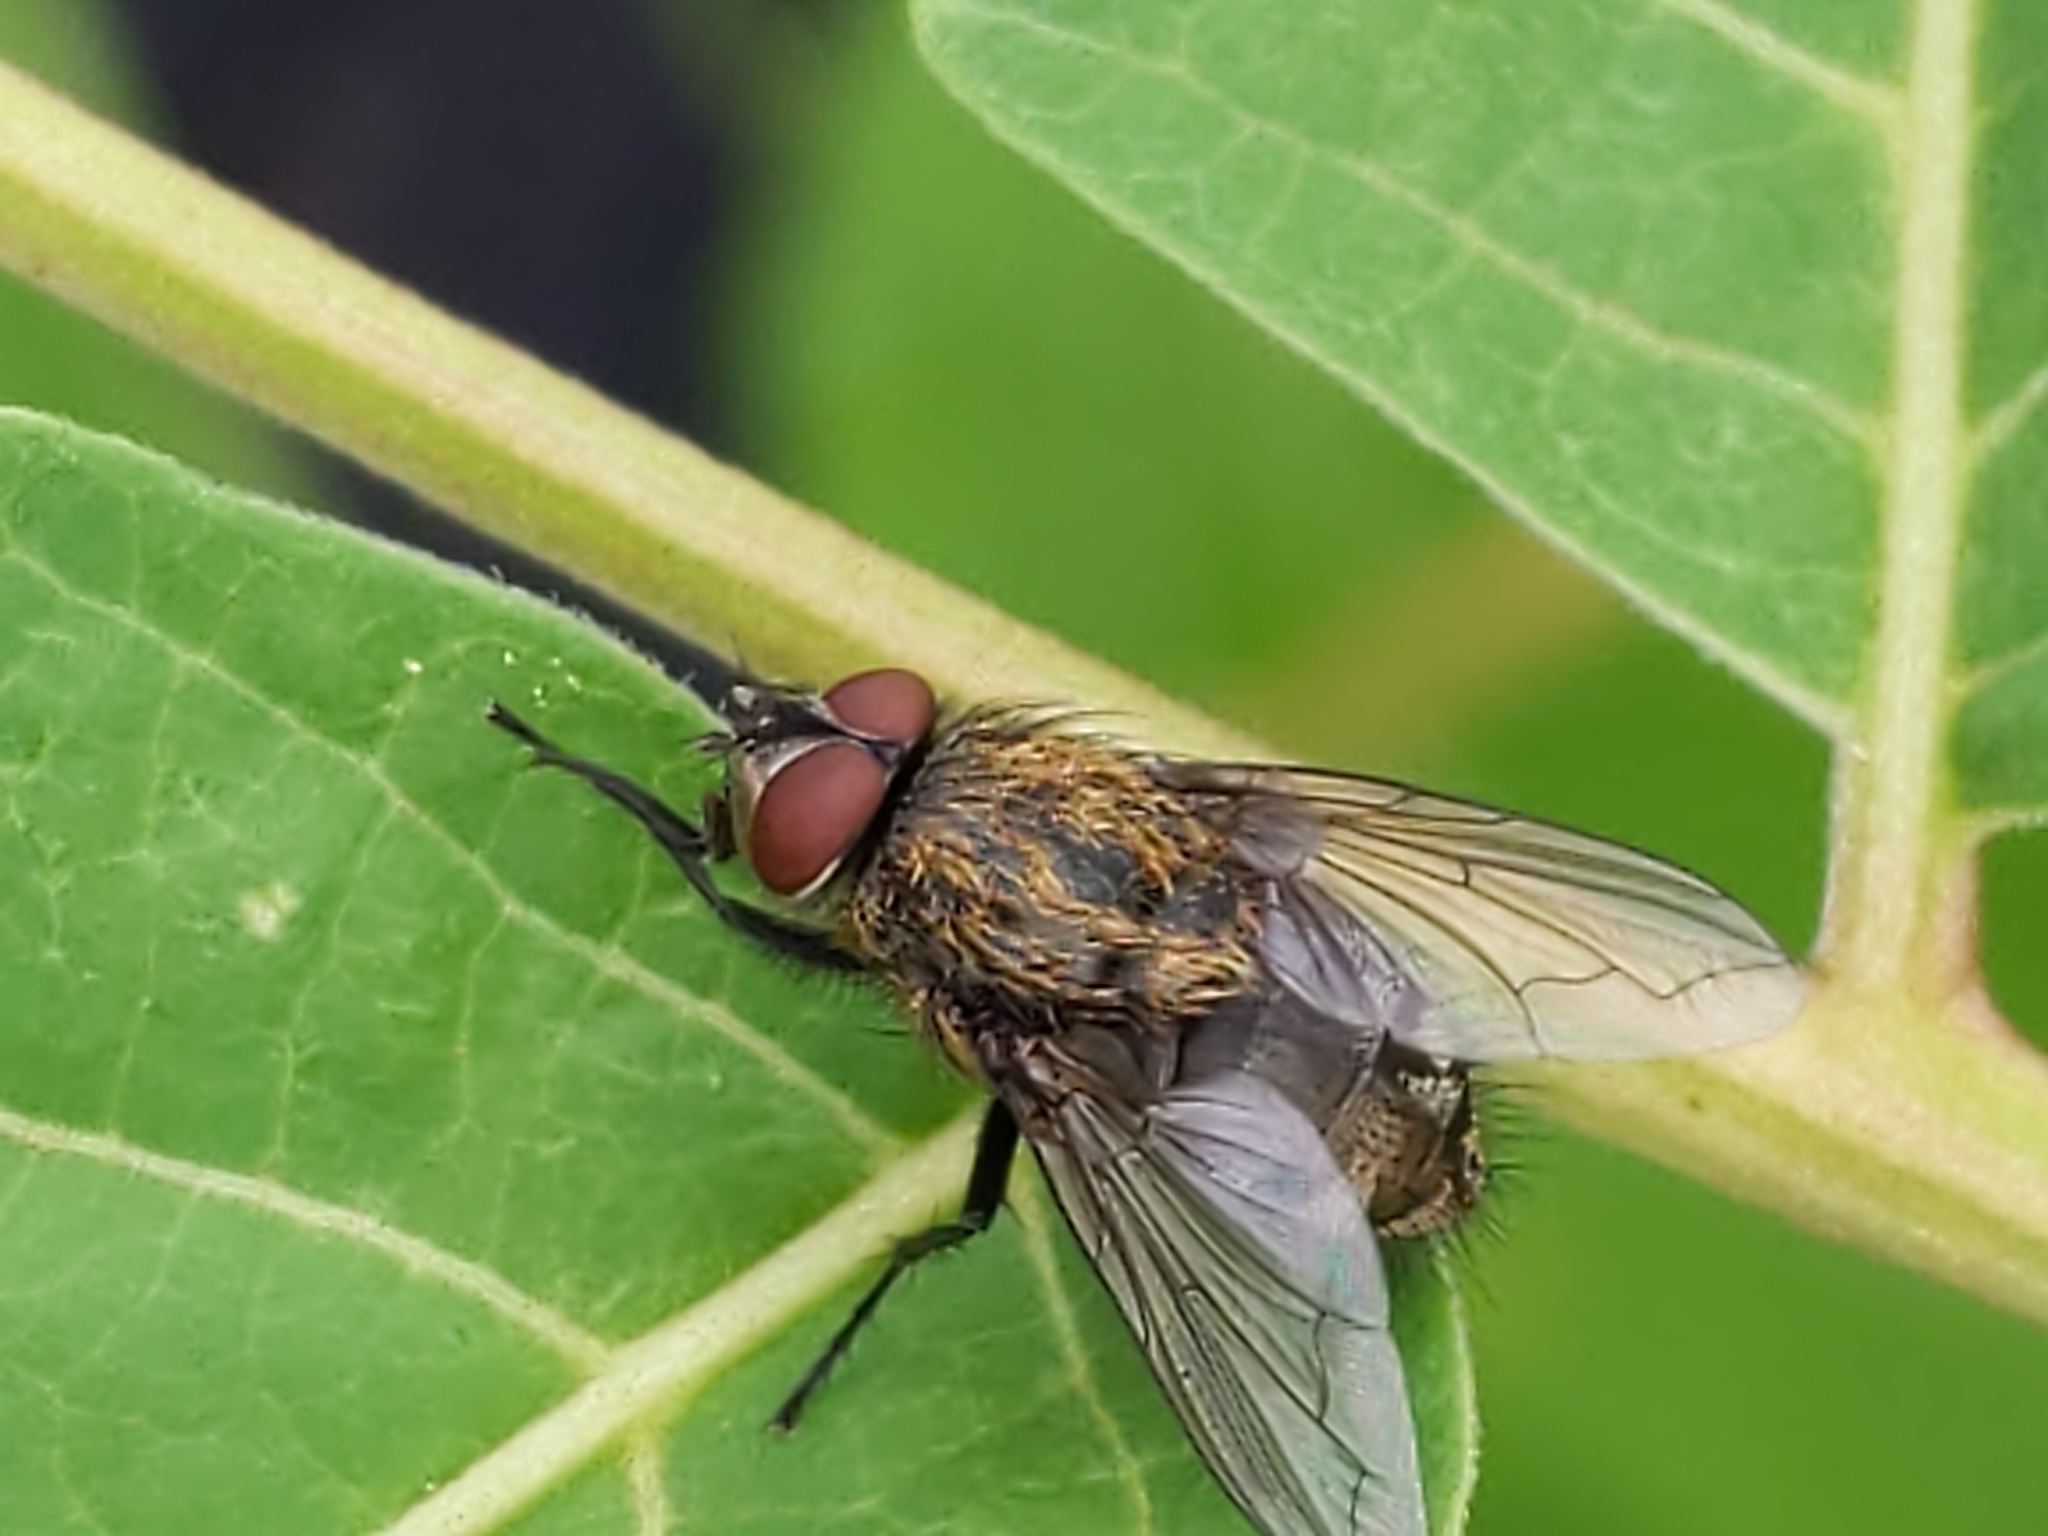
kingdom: Animalia
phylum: Arthropoda
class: Insecta
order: Diptera
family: Polleniidae
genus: Pollenia
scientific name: Pollenia
